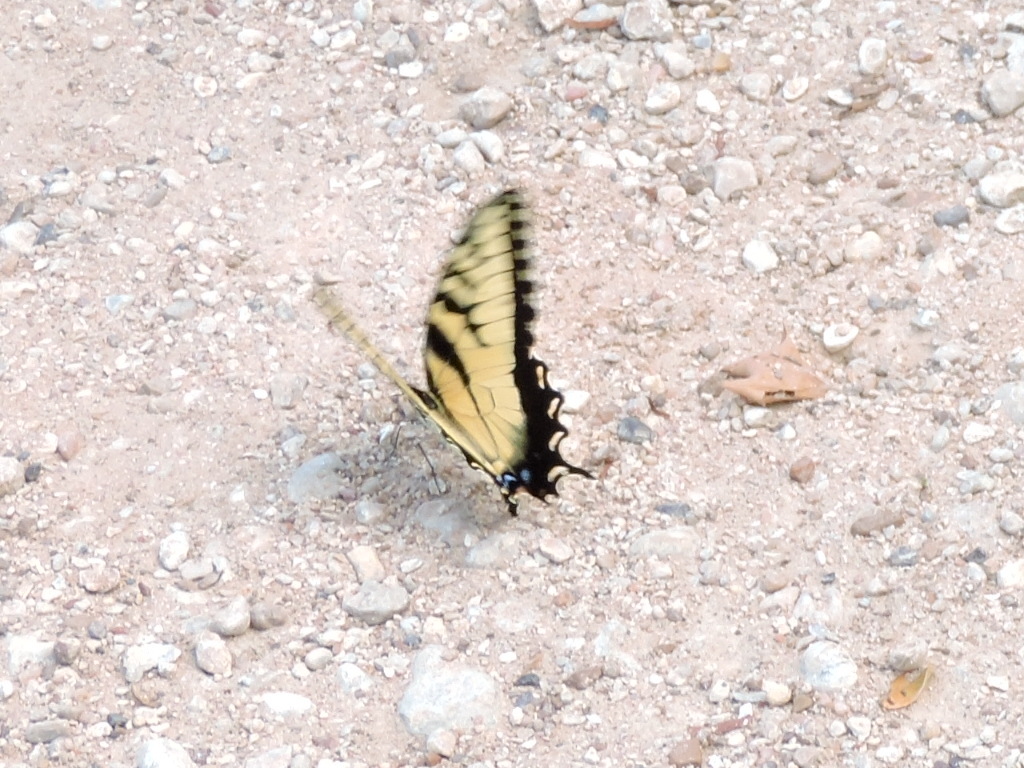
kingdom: Animalia
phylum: Arthropoda
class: Insecta
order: Lepidoptera
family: Papilionidae
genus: Papilio
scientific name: Papilio glaucus
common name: Tiger swallowtail
